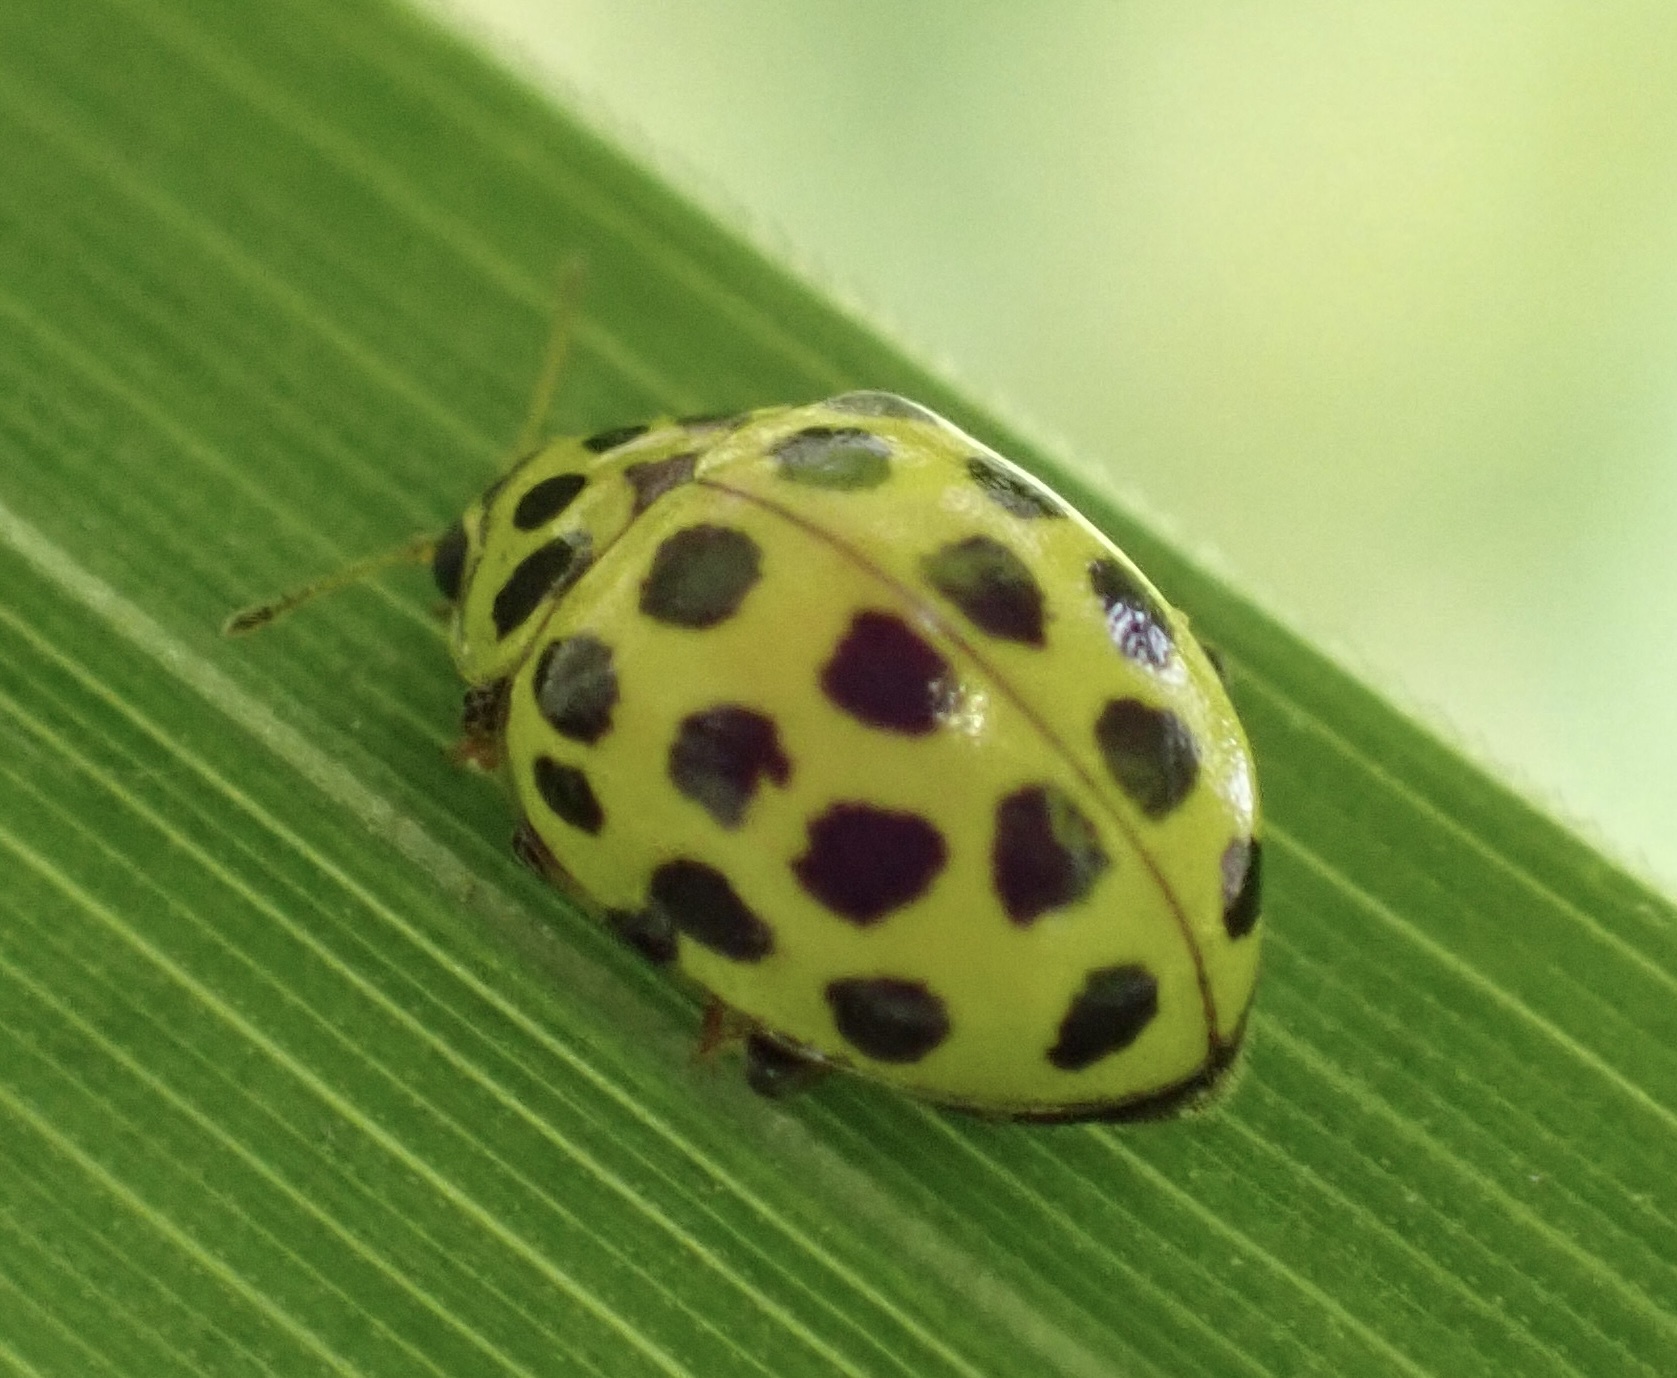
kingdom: Animalia
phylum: Arthropoda
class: Insecta
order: Coleoptera
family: Coccinellidae
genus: Psyllobora
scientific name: Psyllobora vigintiduopunctata
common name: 22-spot ladybird
